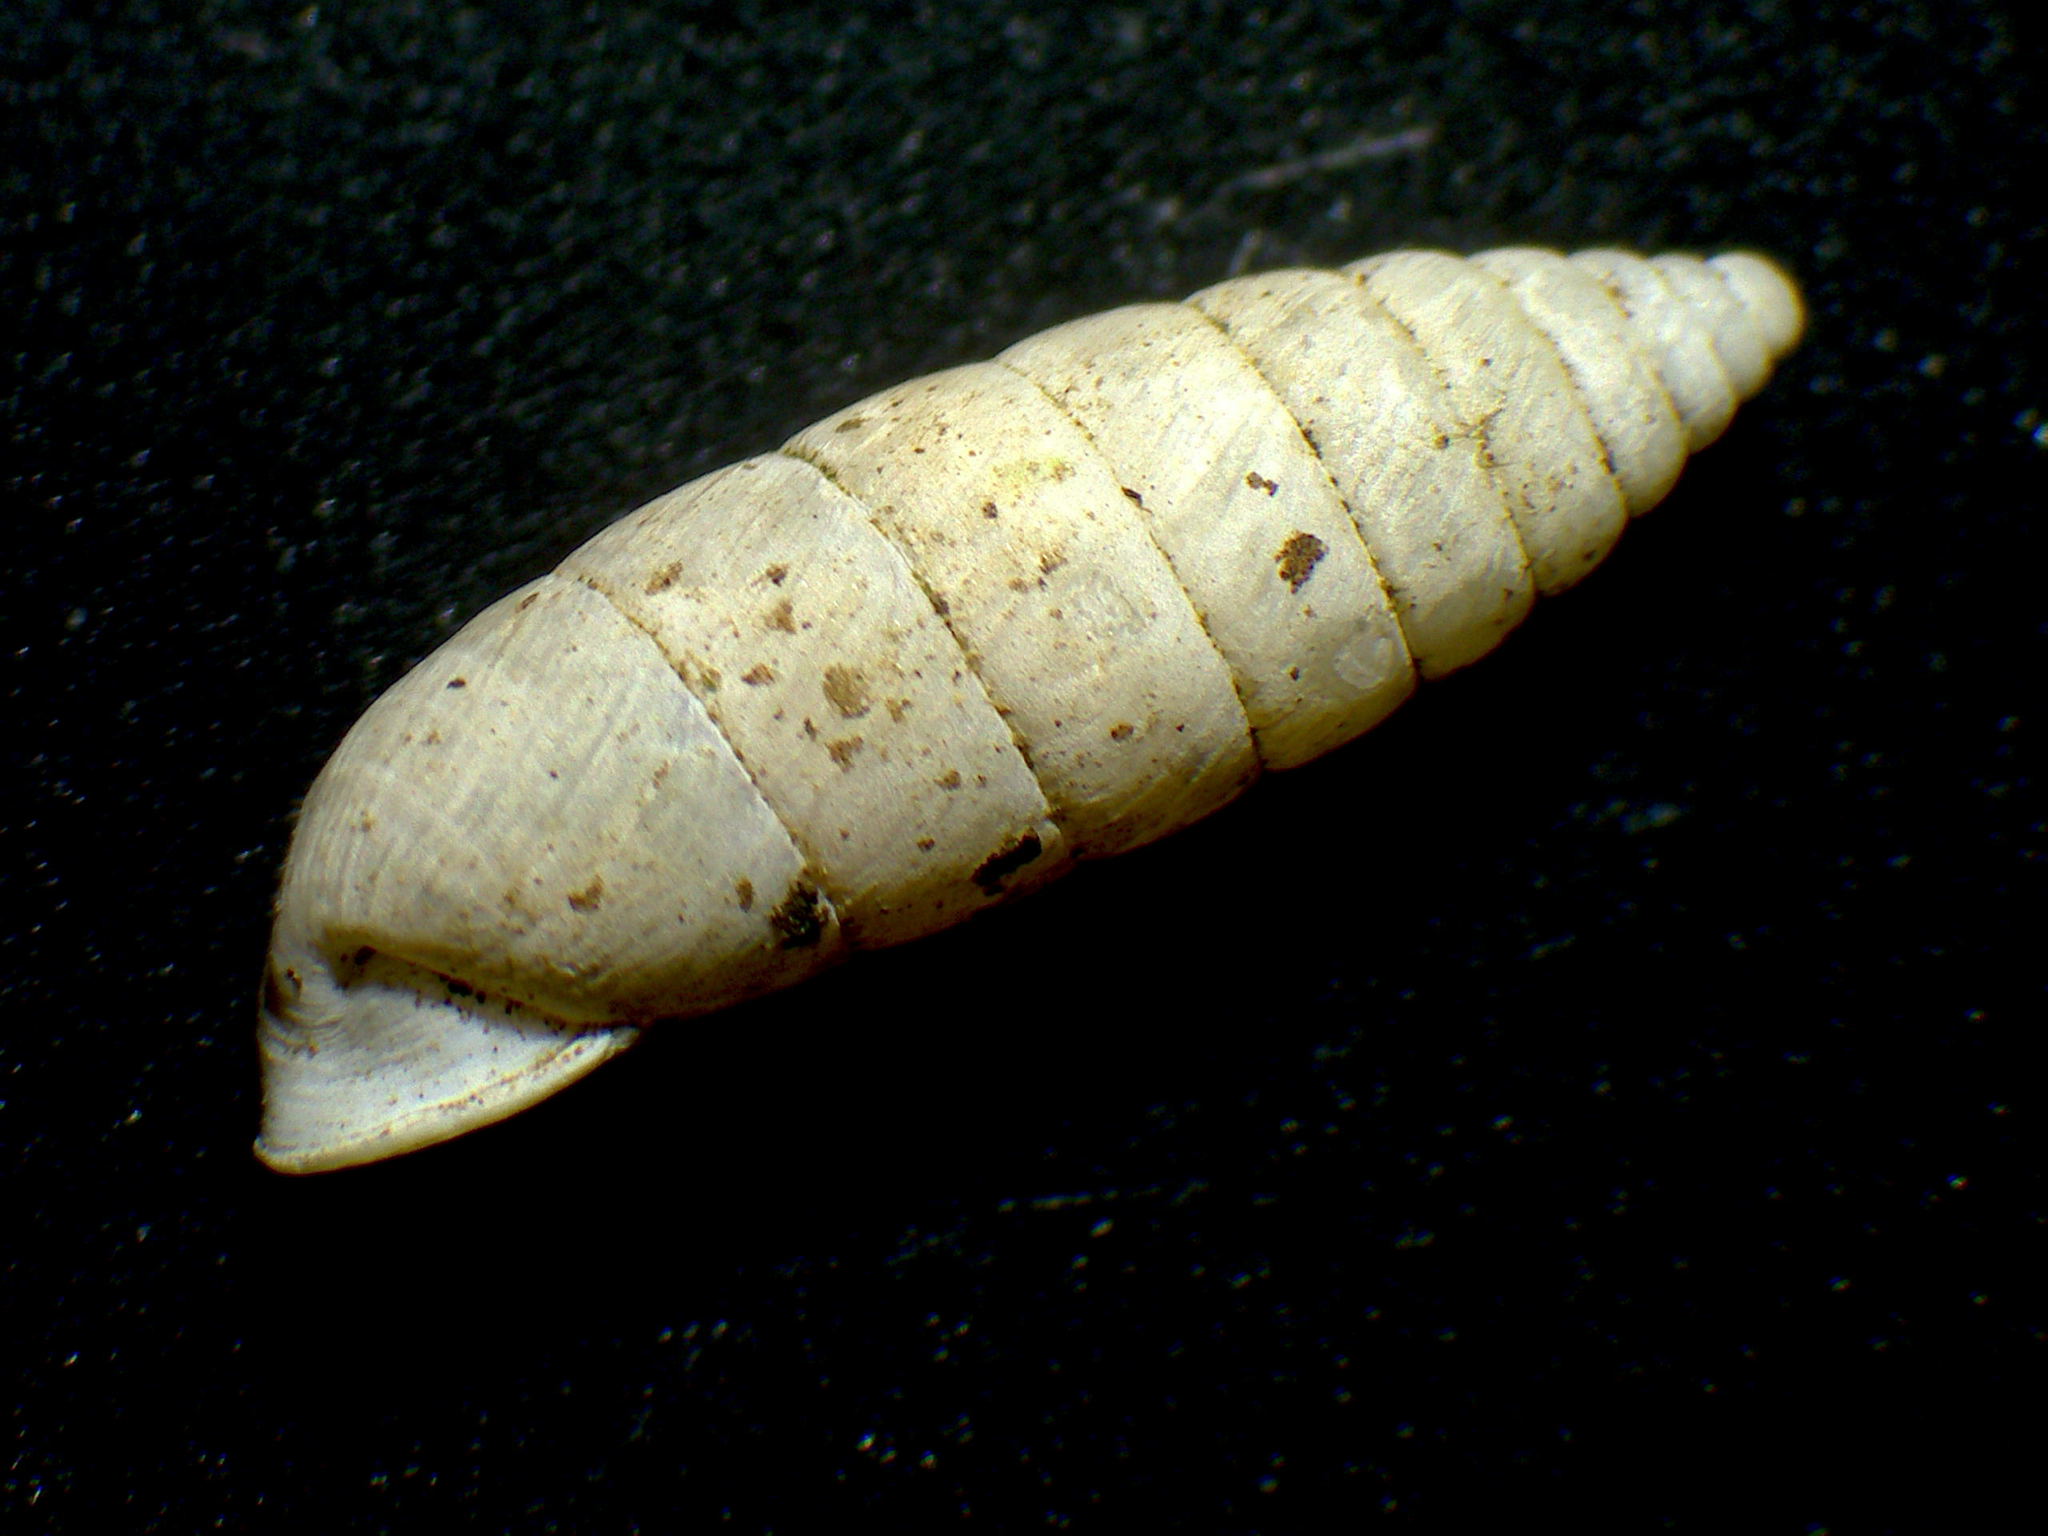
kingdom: Animalia
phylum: Mollusca
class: Gastropoda
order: Stylommatophora
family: Chondrinidae
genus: Granaria
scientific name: Granaria variabilis
